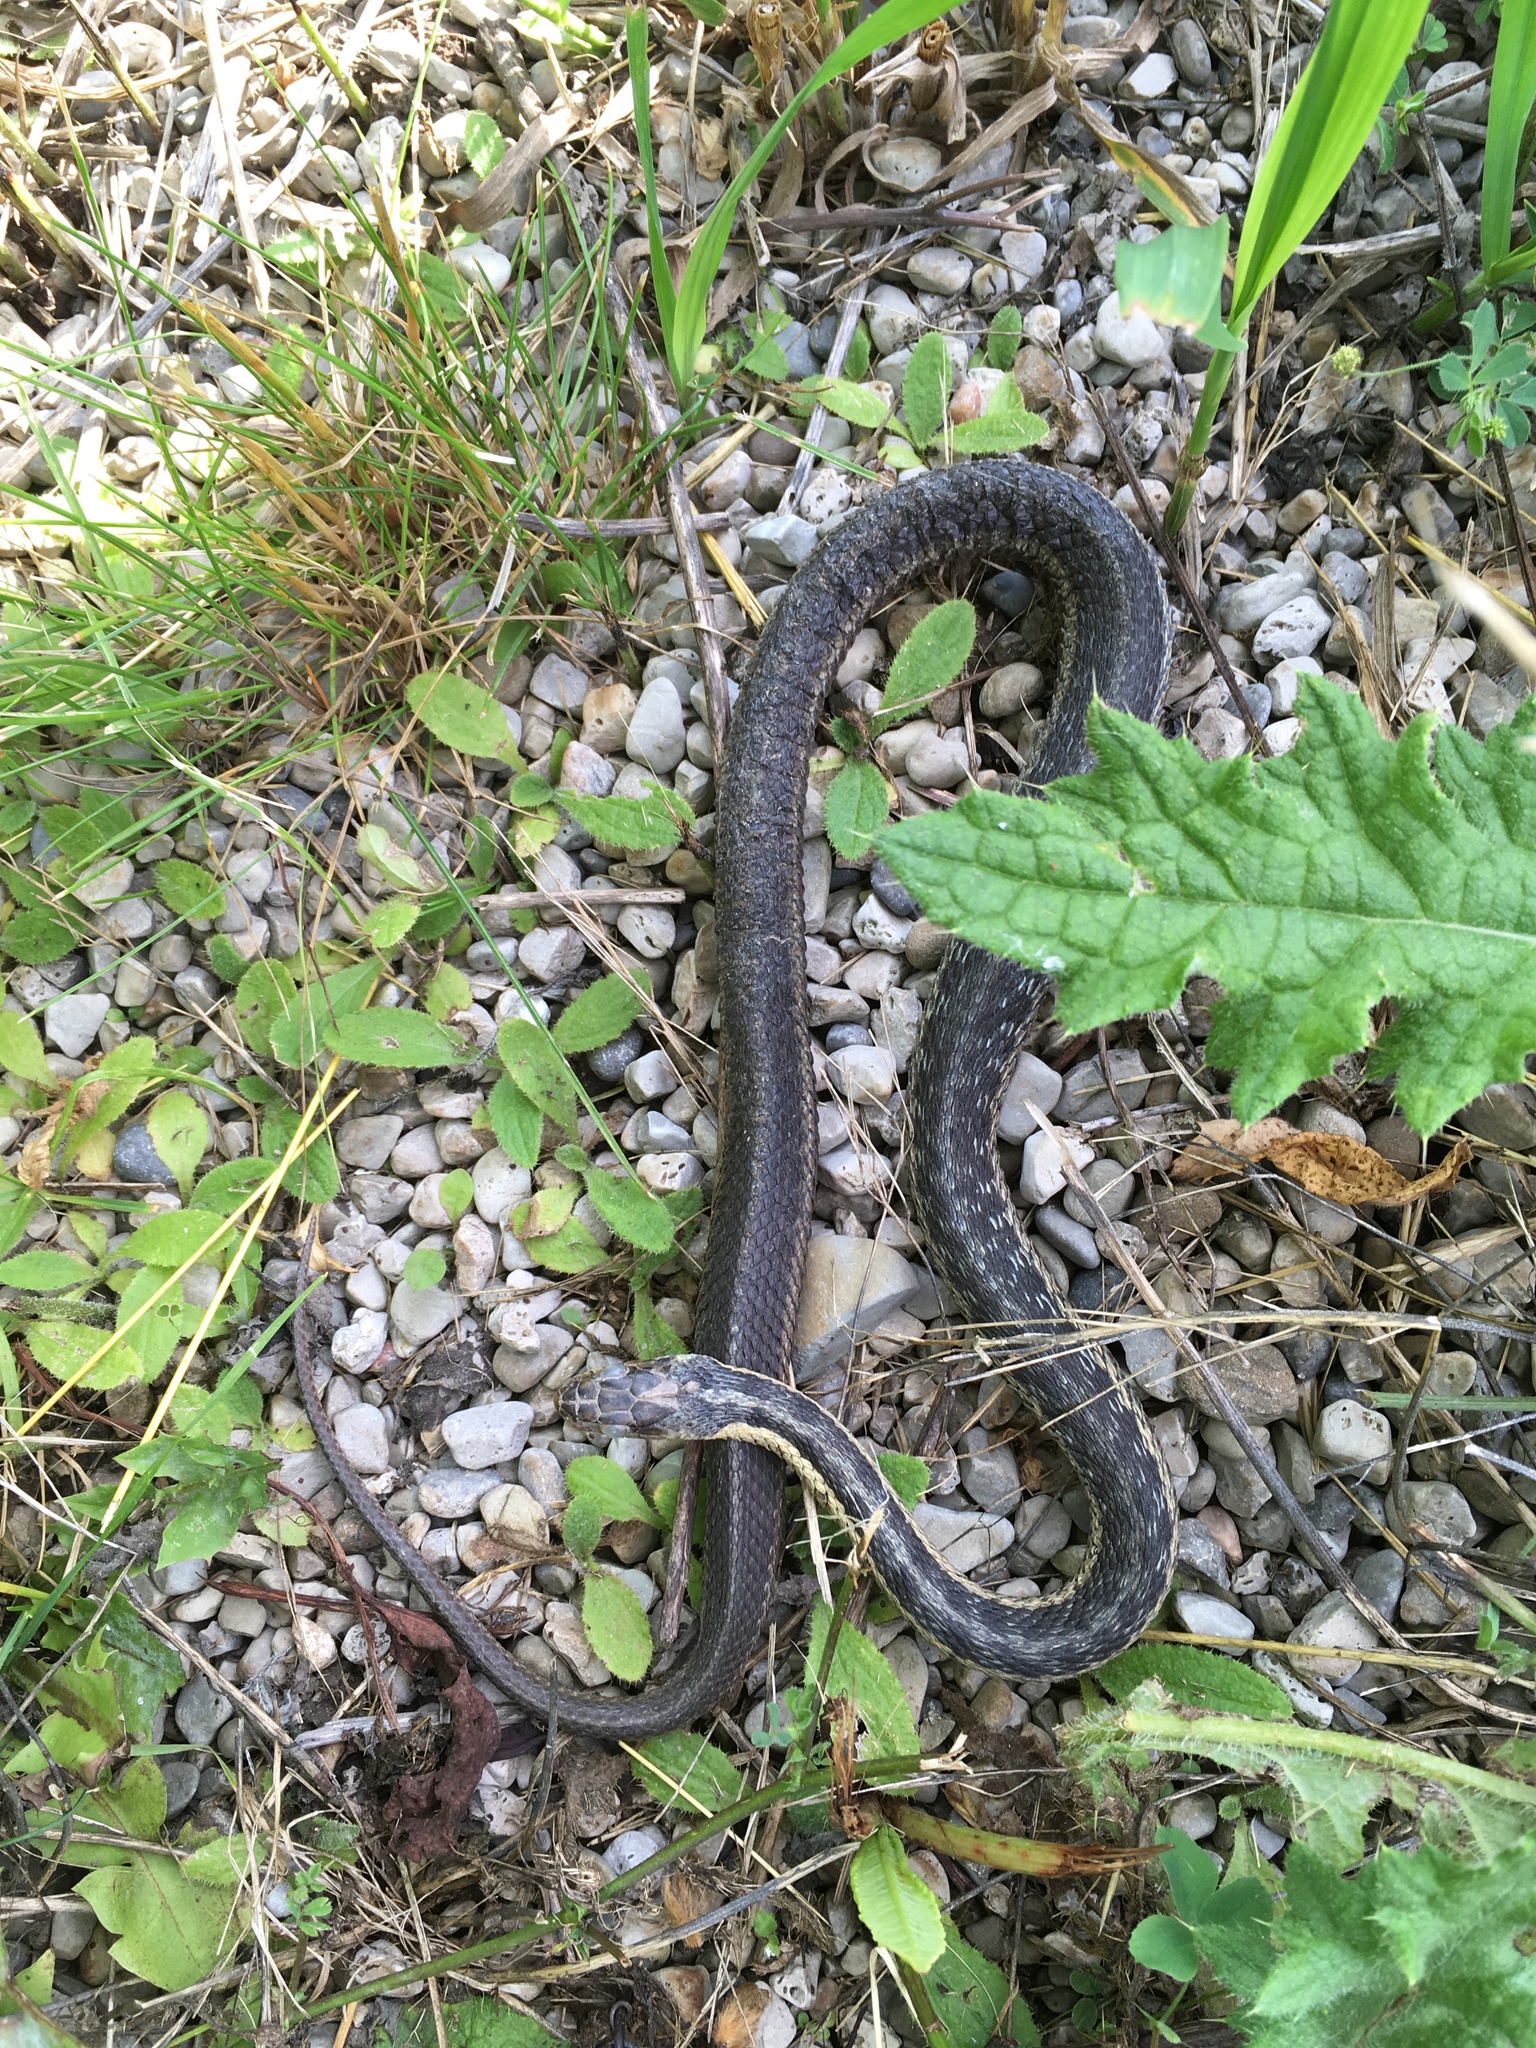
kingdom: Animalia
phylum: Chordata
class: Squamata
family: Colubridae
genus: Thamnophis
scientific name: Thamnophis sirtalis
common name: Common garter snake
